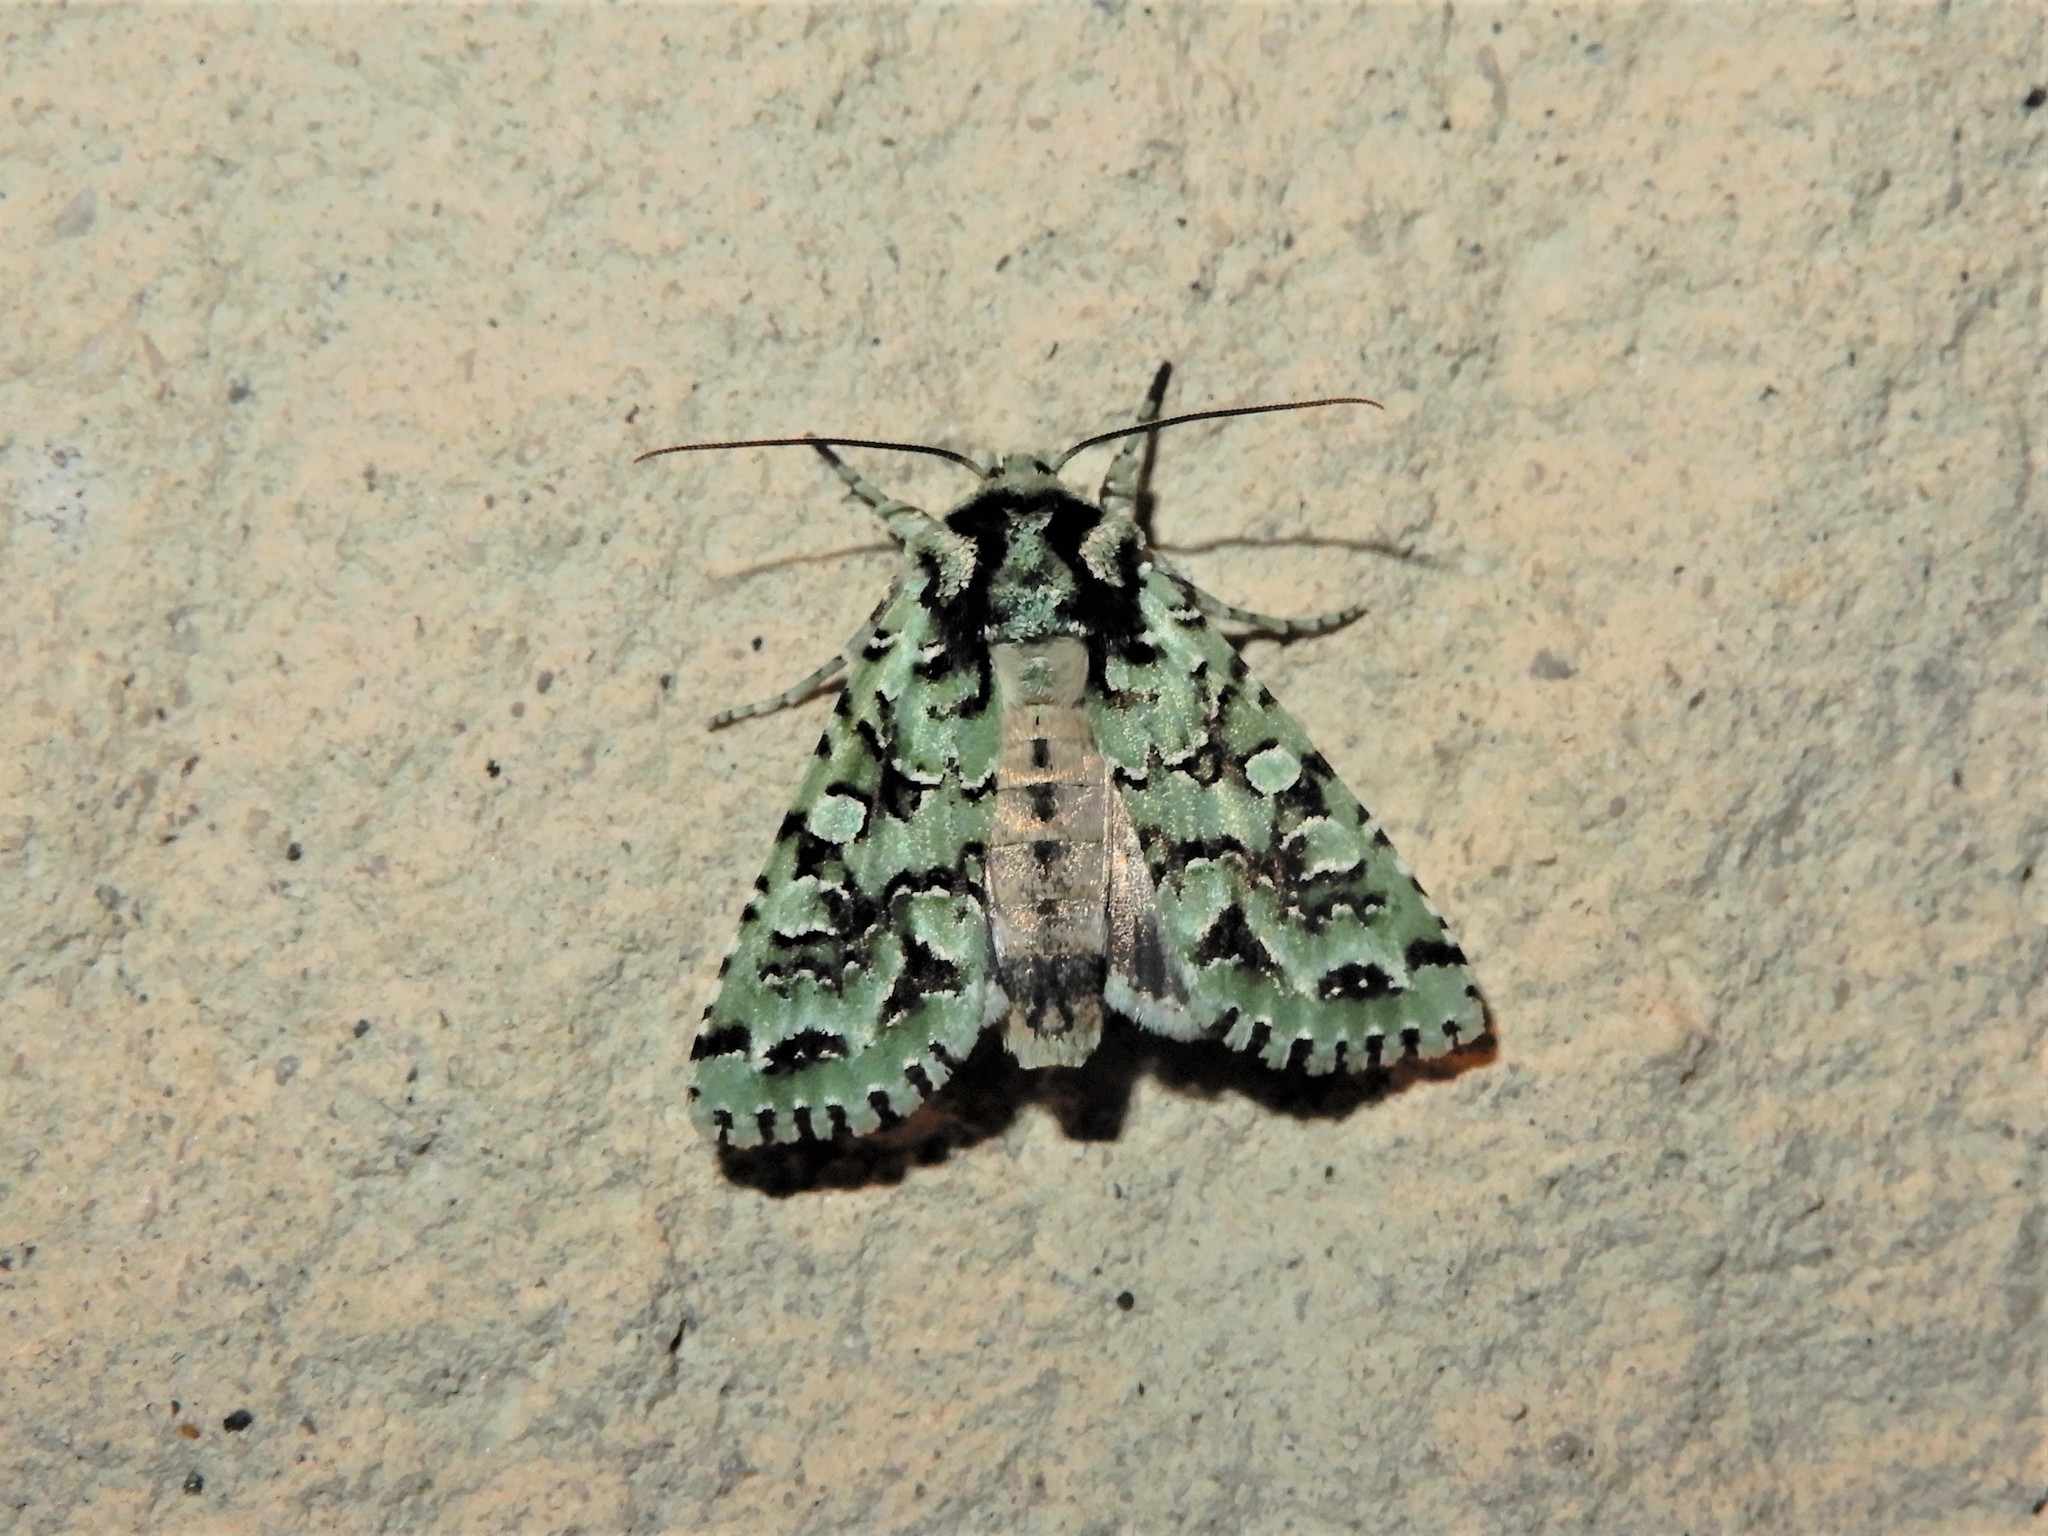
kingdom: Animalia
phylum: Arthropoda
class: Insecta
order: Lepidoptera
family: Noctuidae
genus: Meterana
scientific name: Meterana
